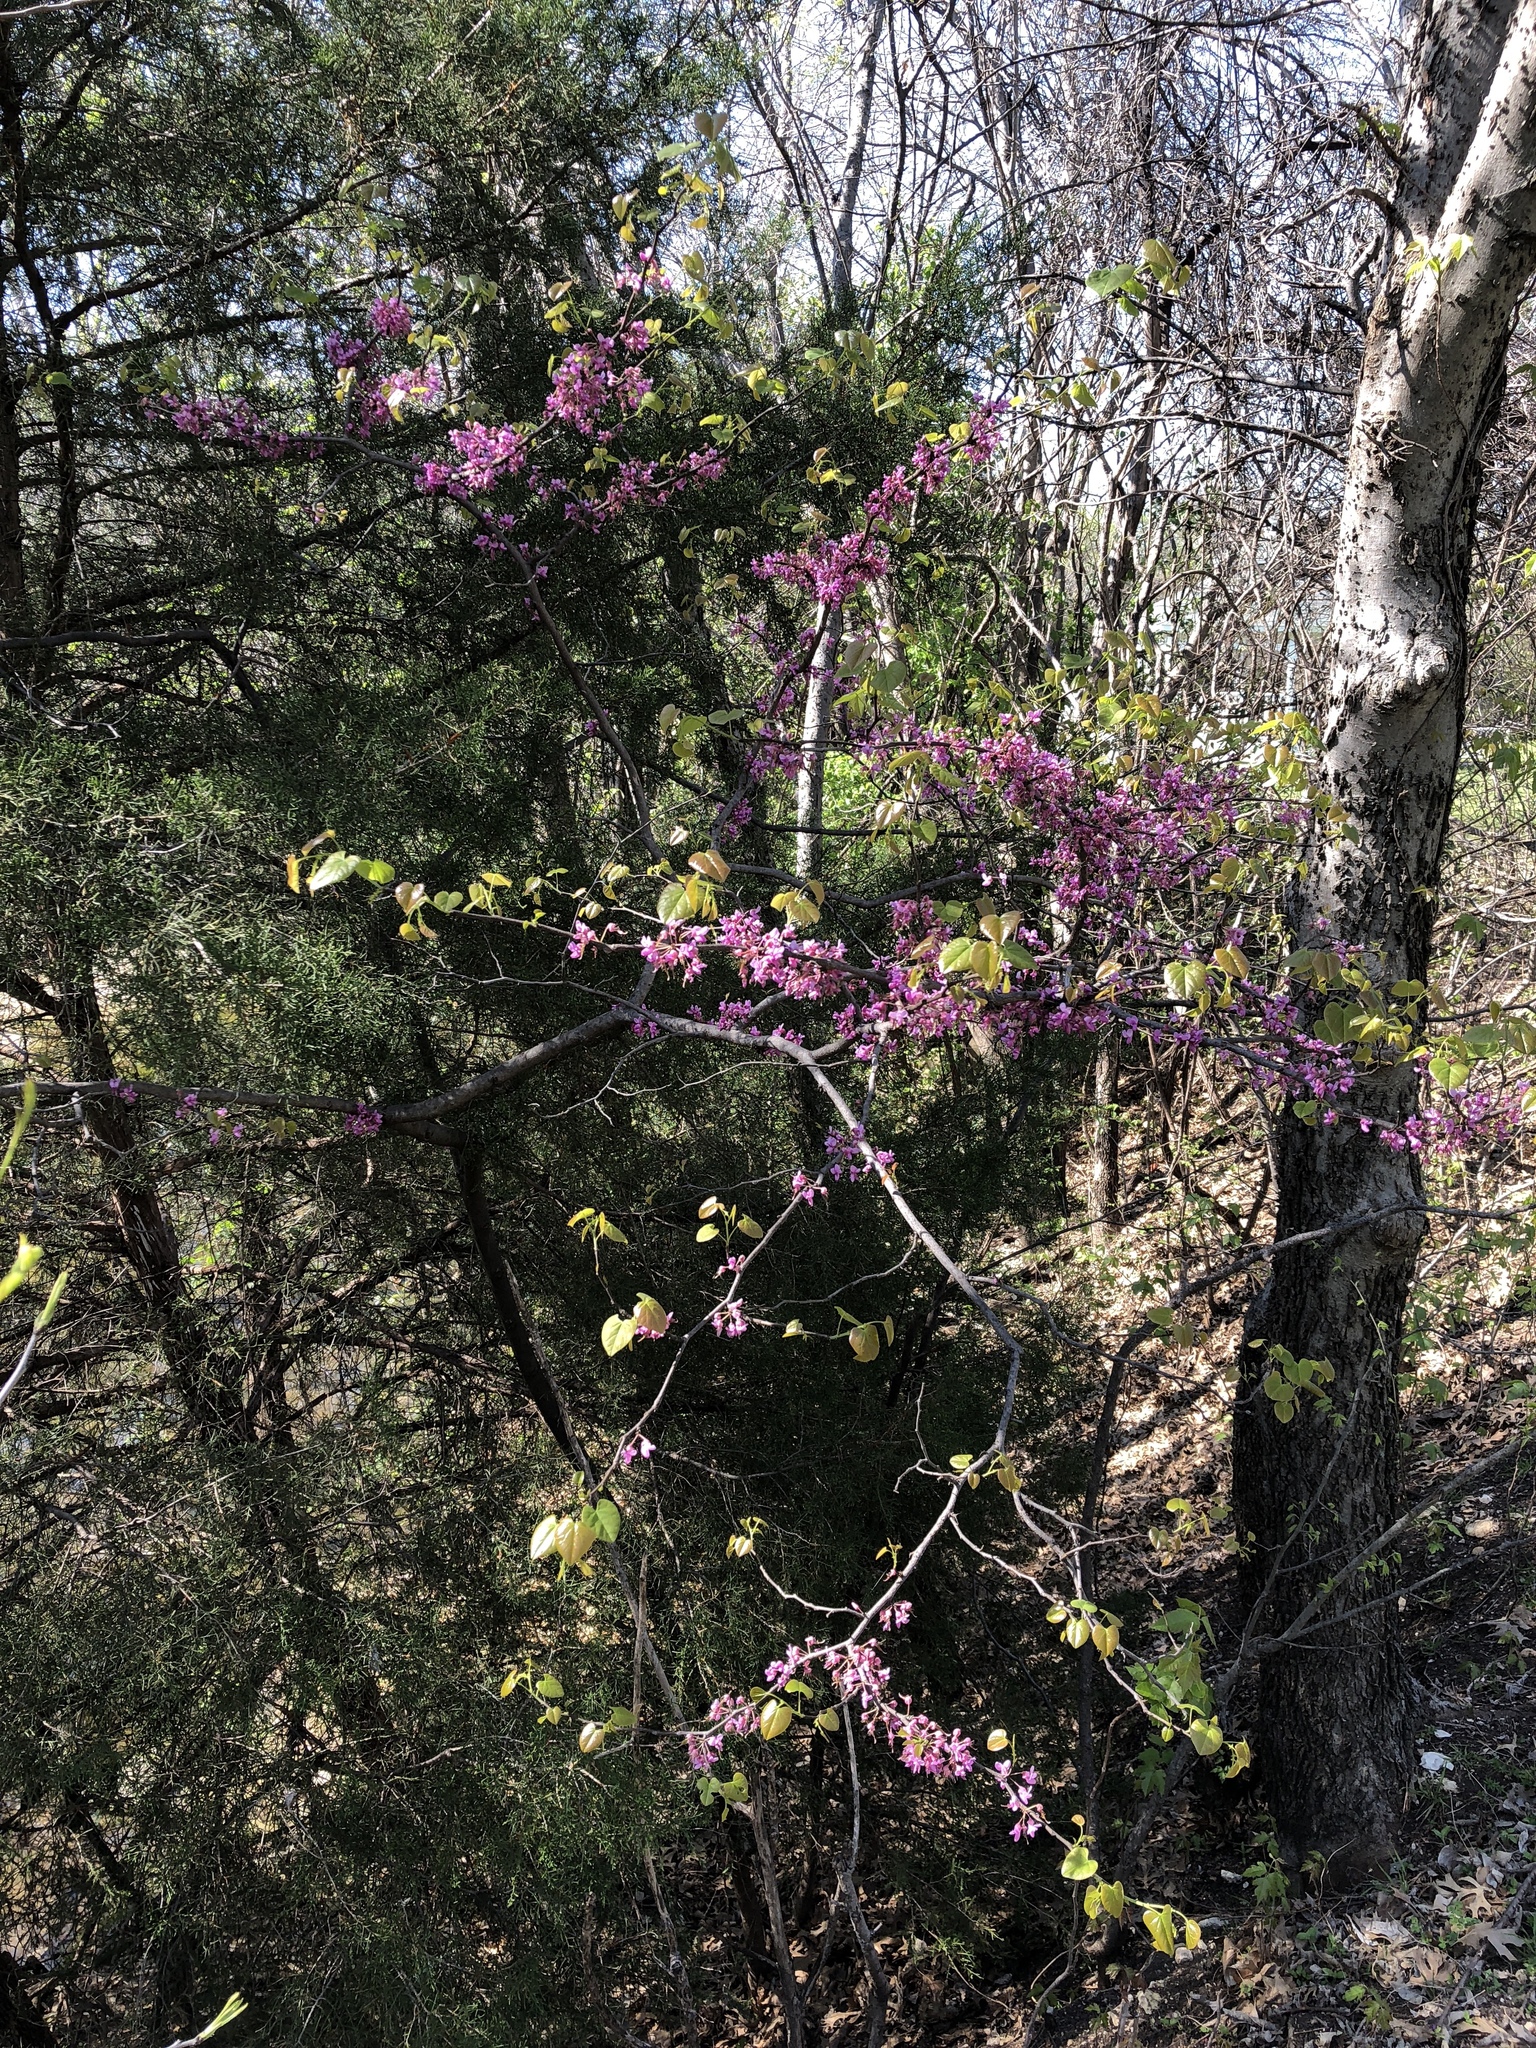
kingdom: Plantae
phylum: Tracheophyta
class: Magnoliopsida
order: Fabales
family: Fabaceae
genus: Cercis
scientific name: Cercis canadensis
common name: Eastern redbud
